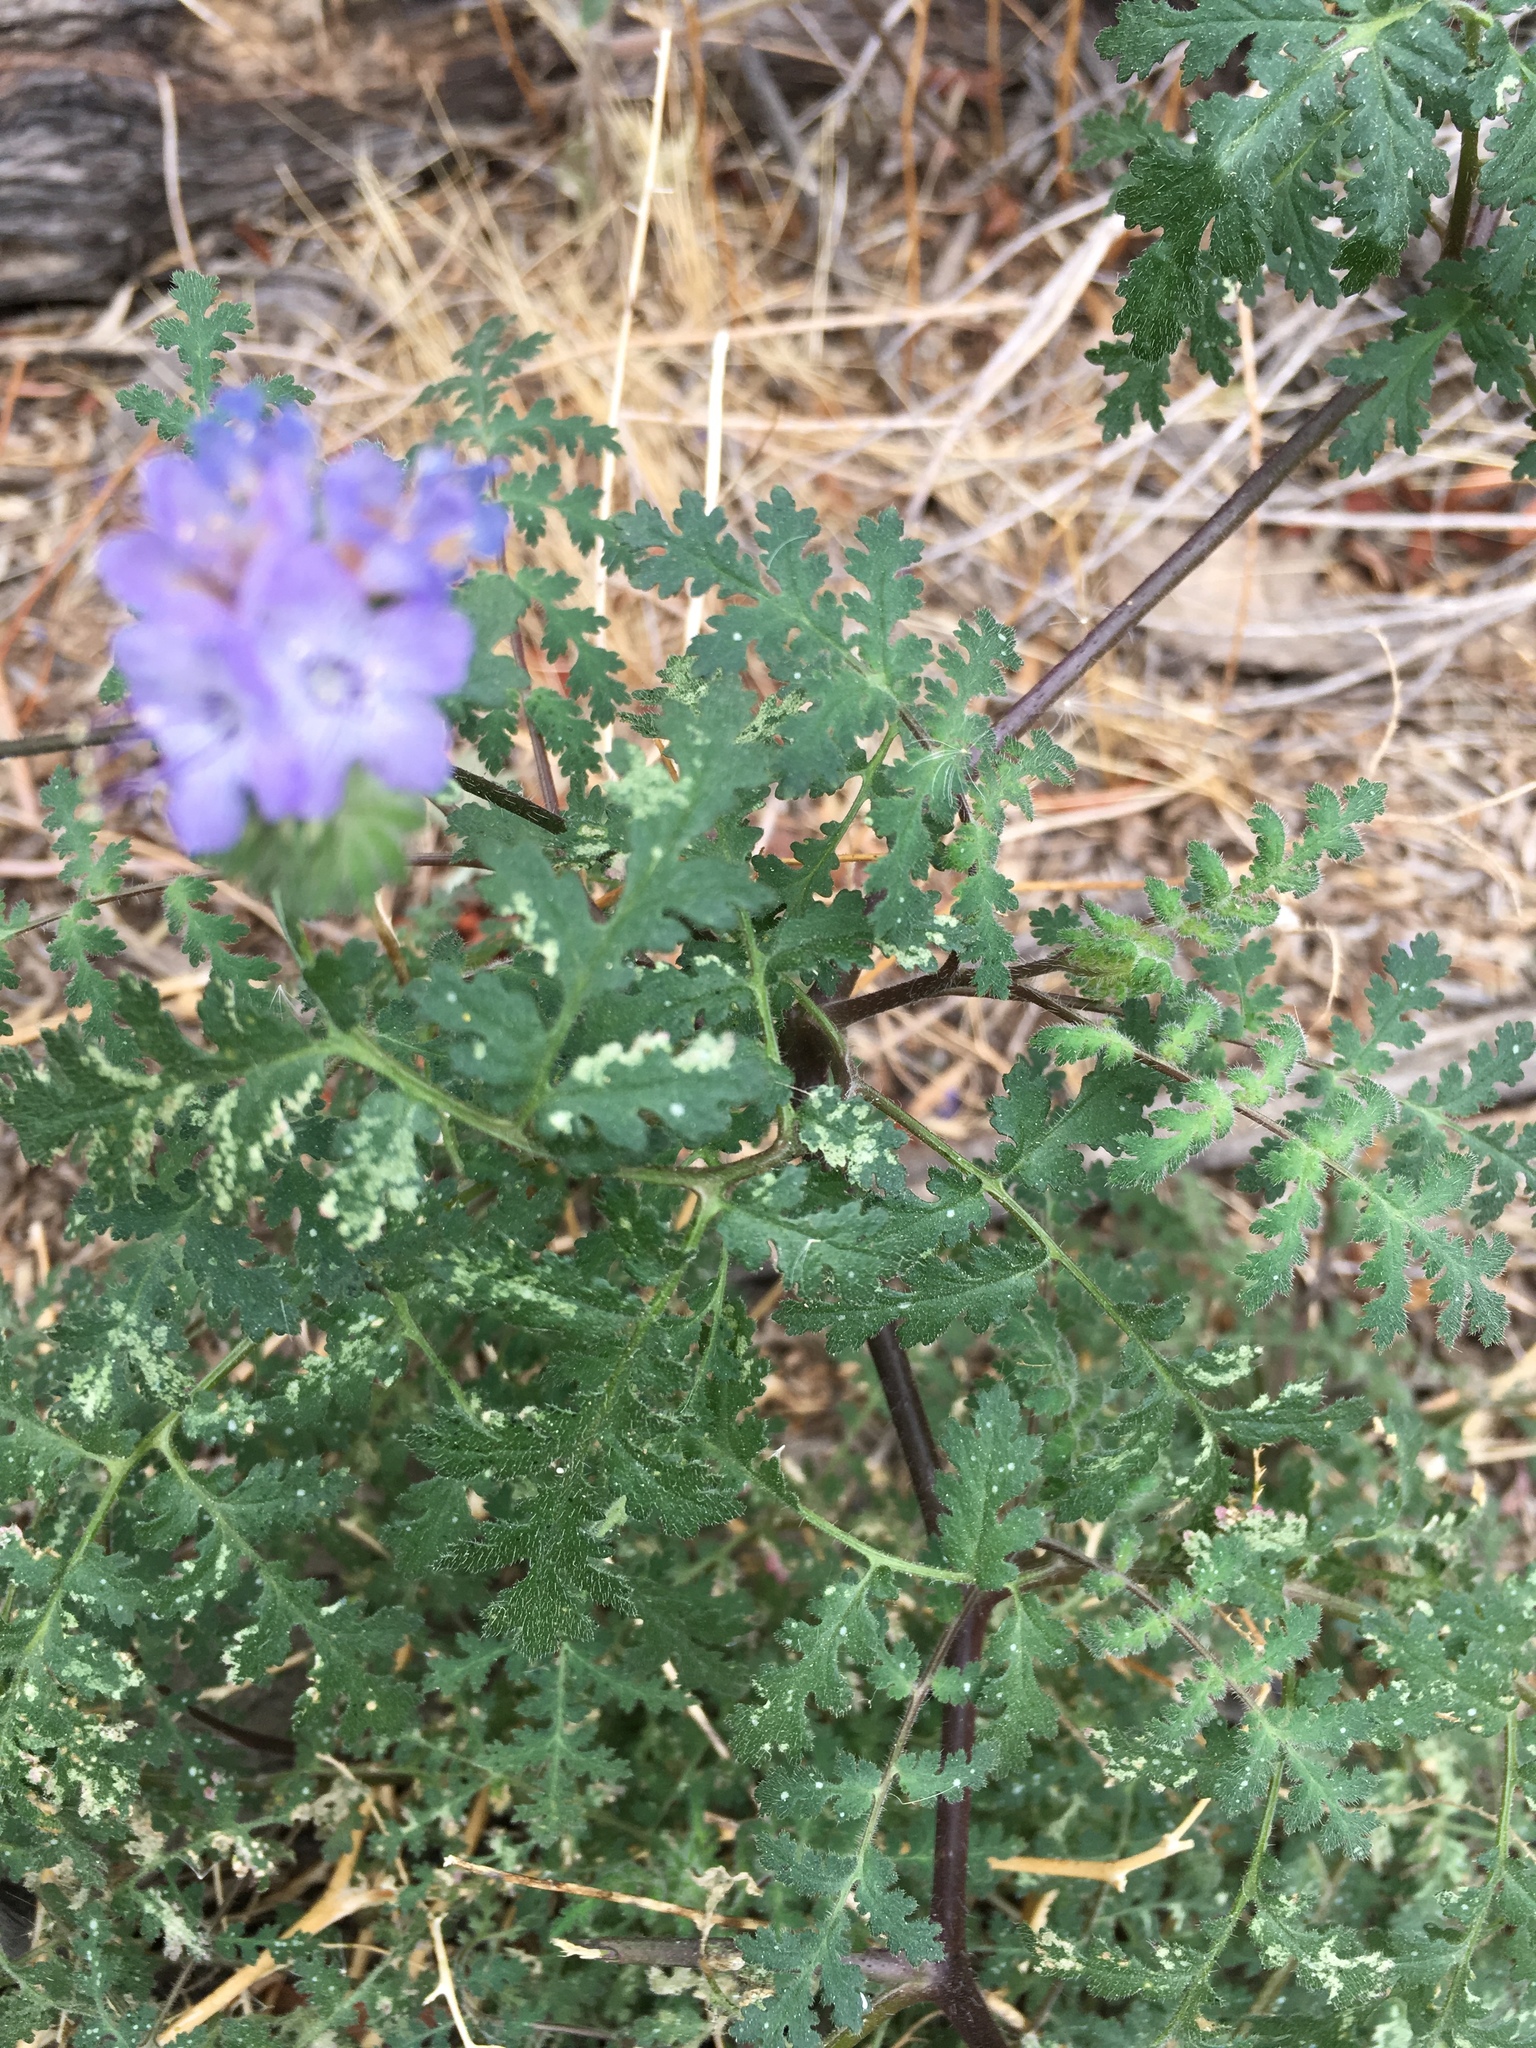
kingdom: Plantae
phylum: Tracheophyta
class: Magnoliopsida
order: Boraginales
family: Hydrophyllaceae
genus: Phacelia
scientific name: Phacelia distans
